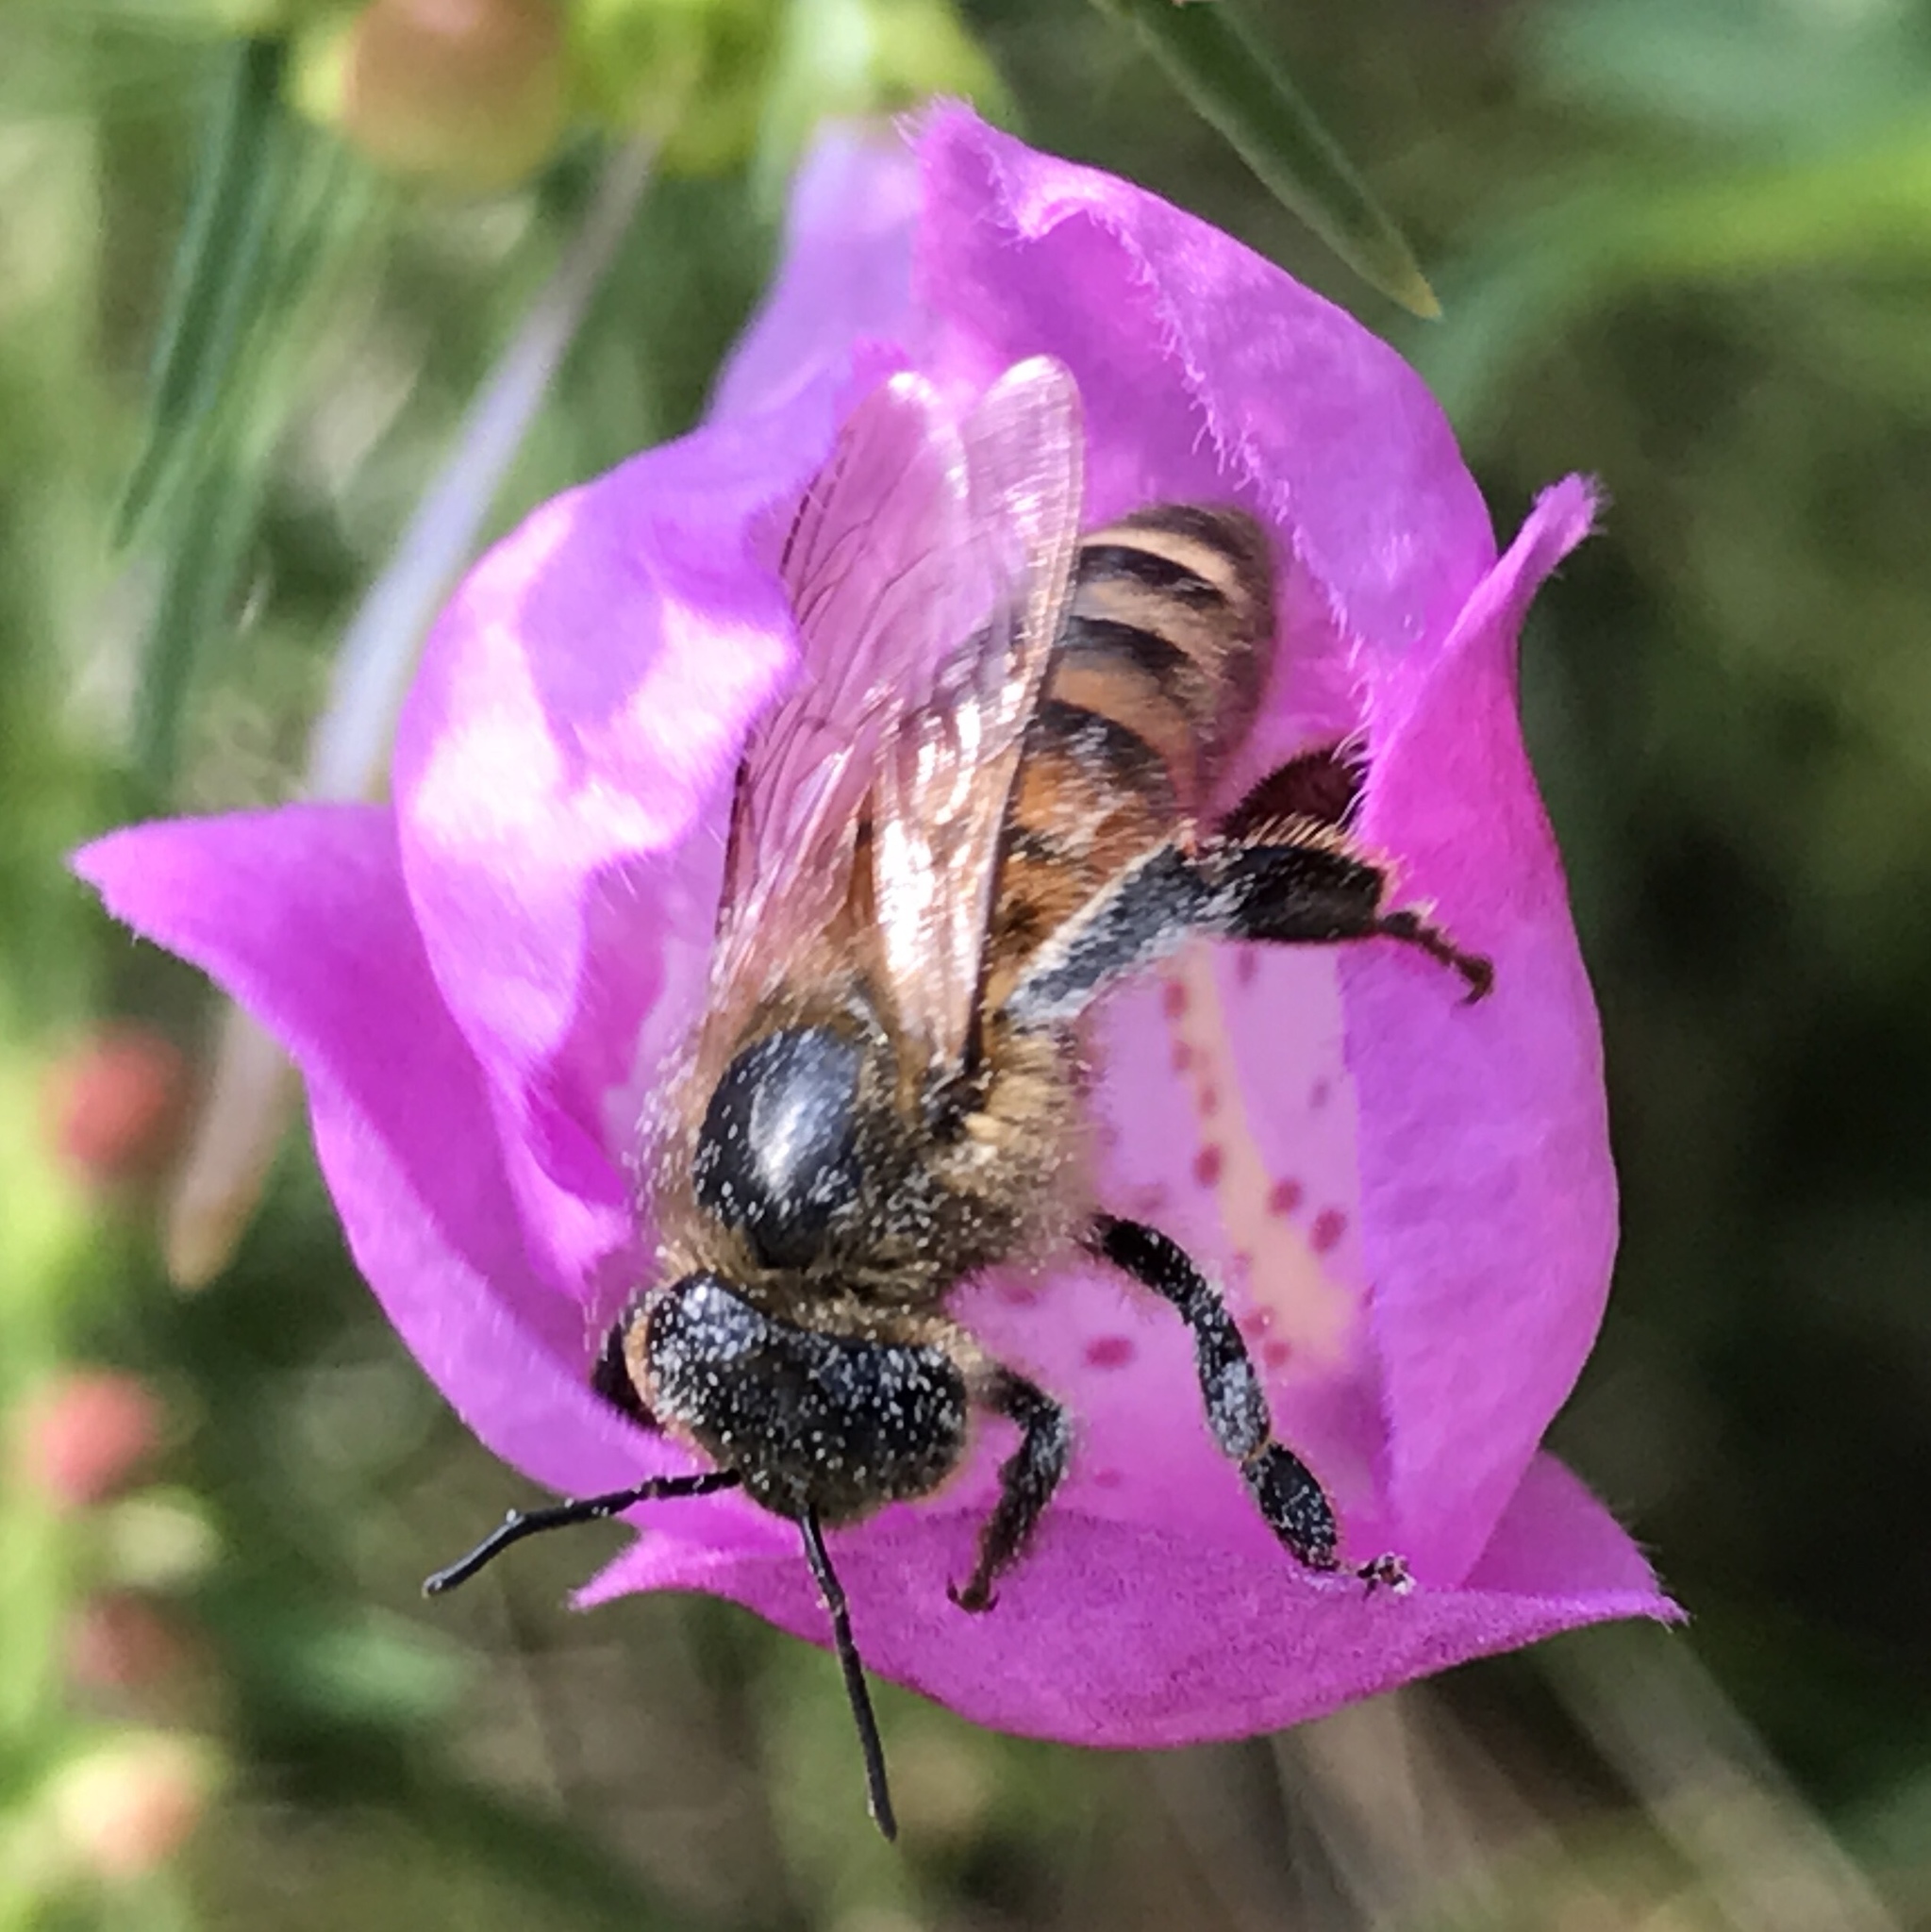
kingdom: Animalia
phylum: Arthropoda
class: Insecta
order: Hymenoptera
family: Apidae
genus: Apis
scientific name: Apis mellifera
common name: Honey bee
